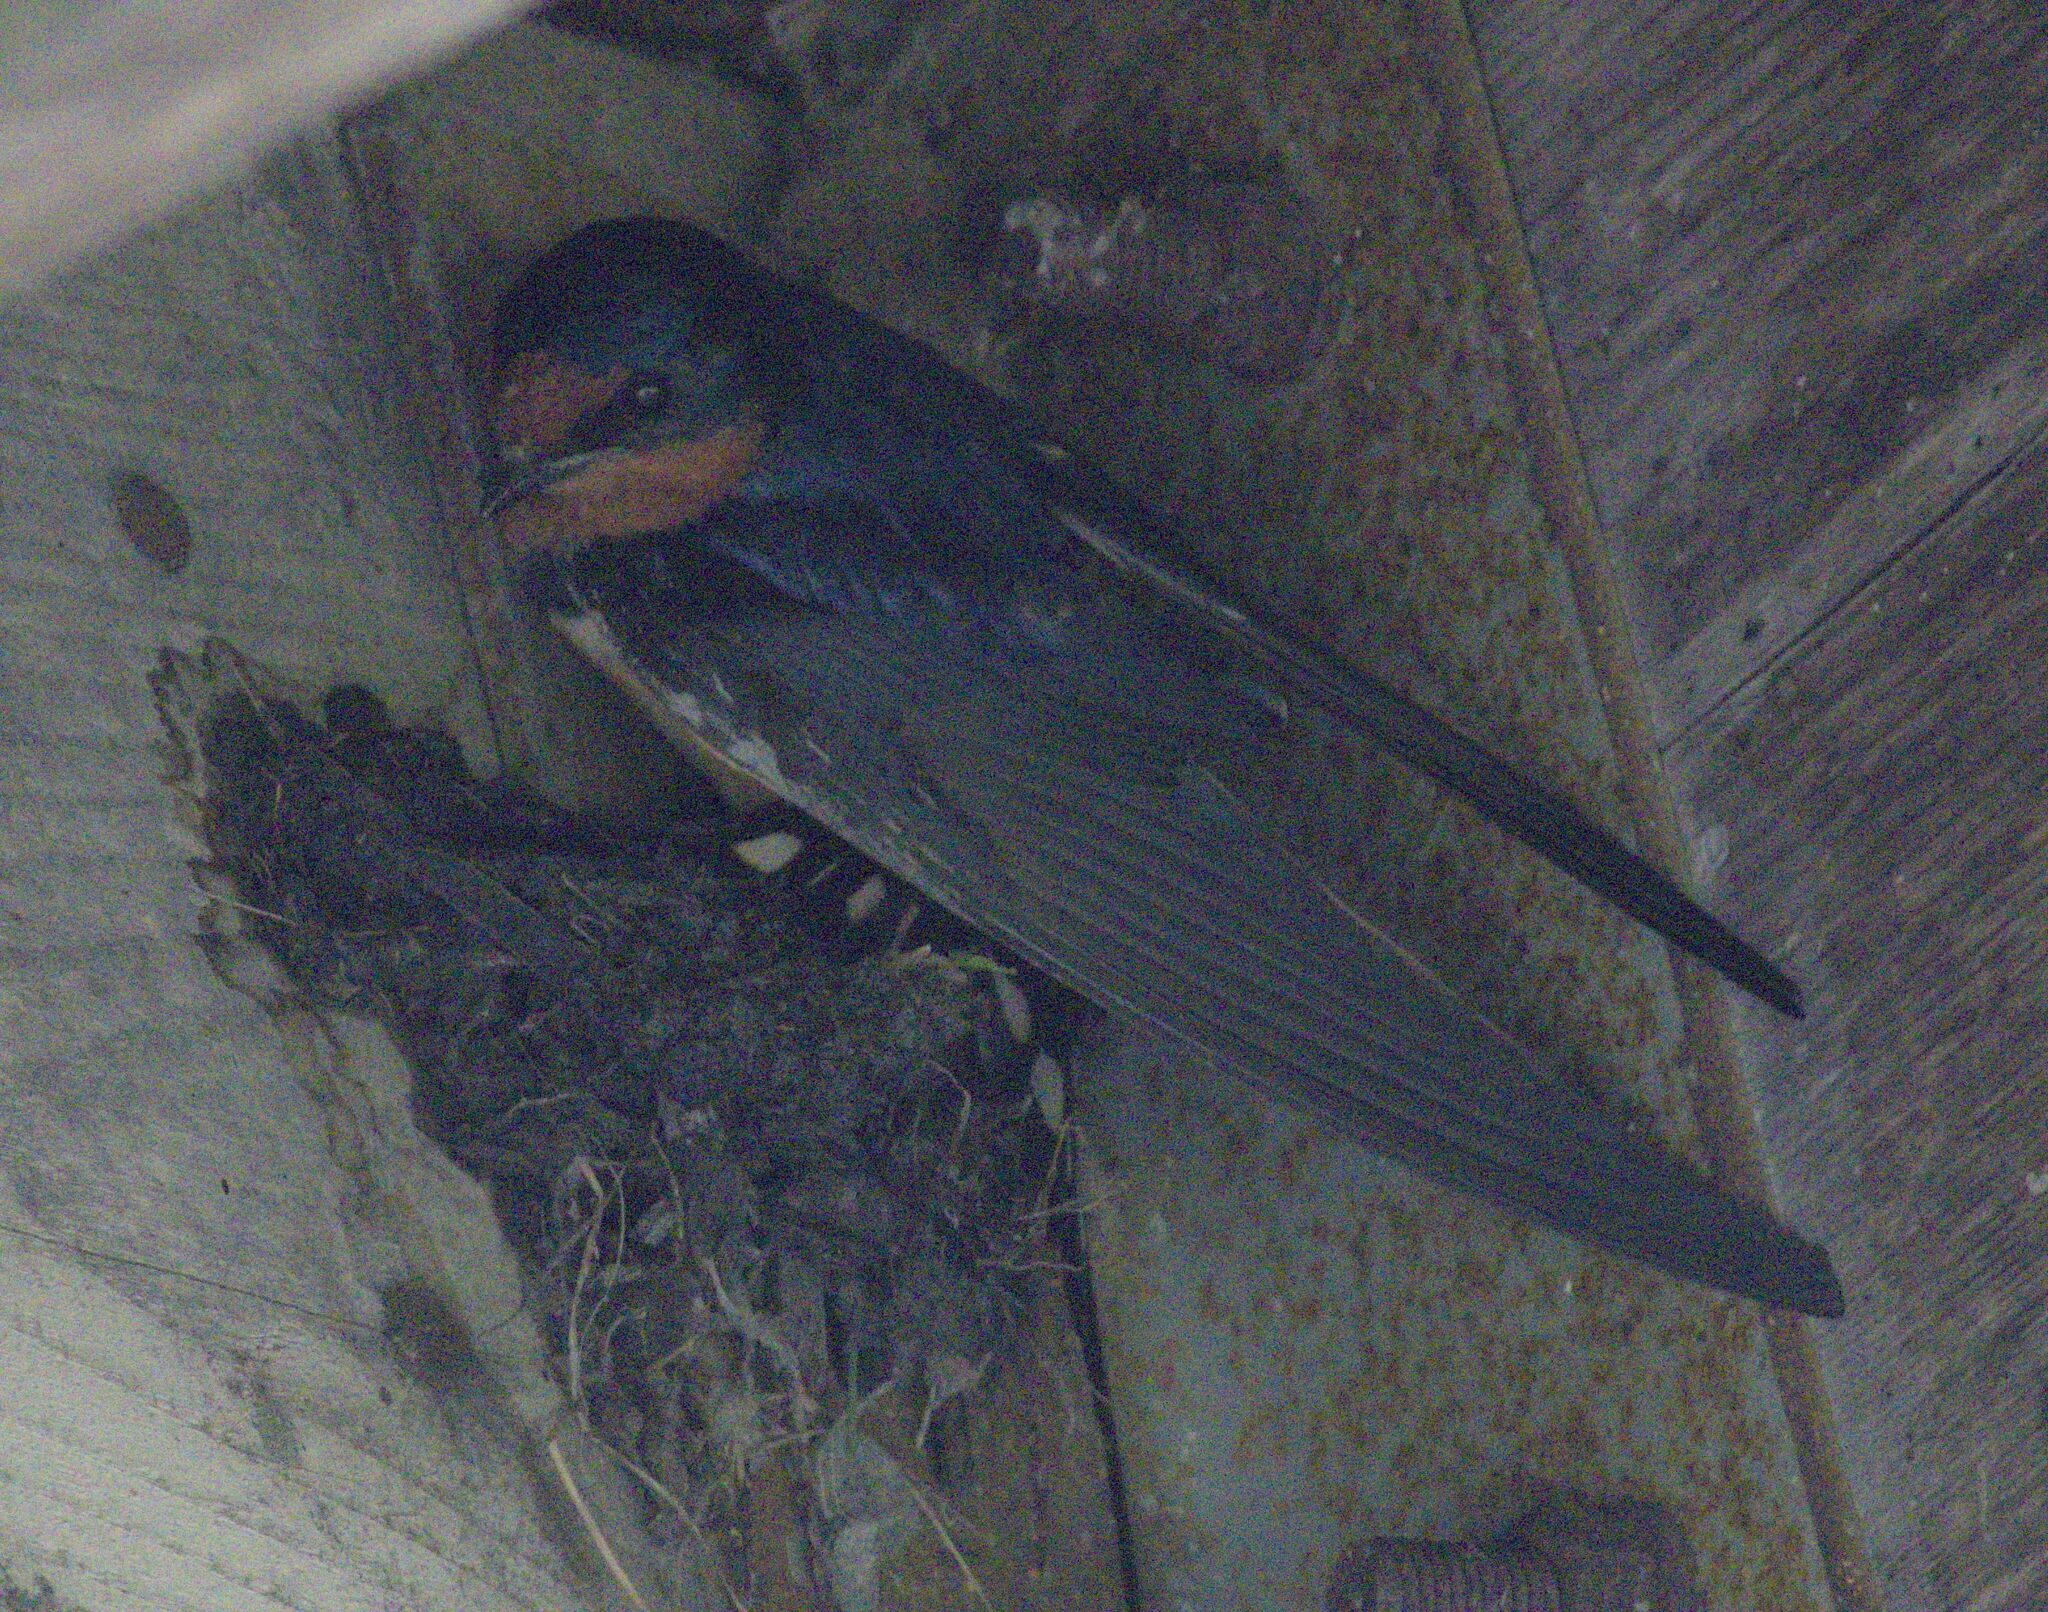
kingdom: Animalia
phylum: Chordata
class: Aves
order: Passeriformes
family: Hirundinidae
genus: Hirundo
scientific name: Hirundo rustica
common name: Barn swallow
